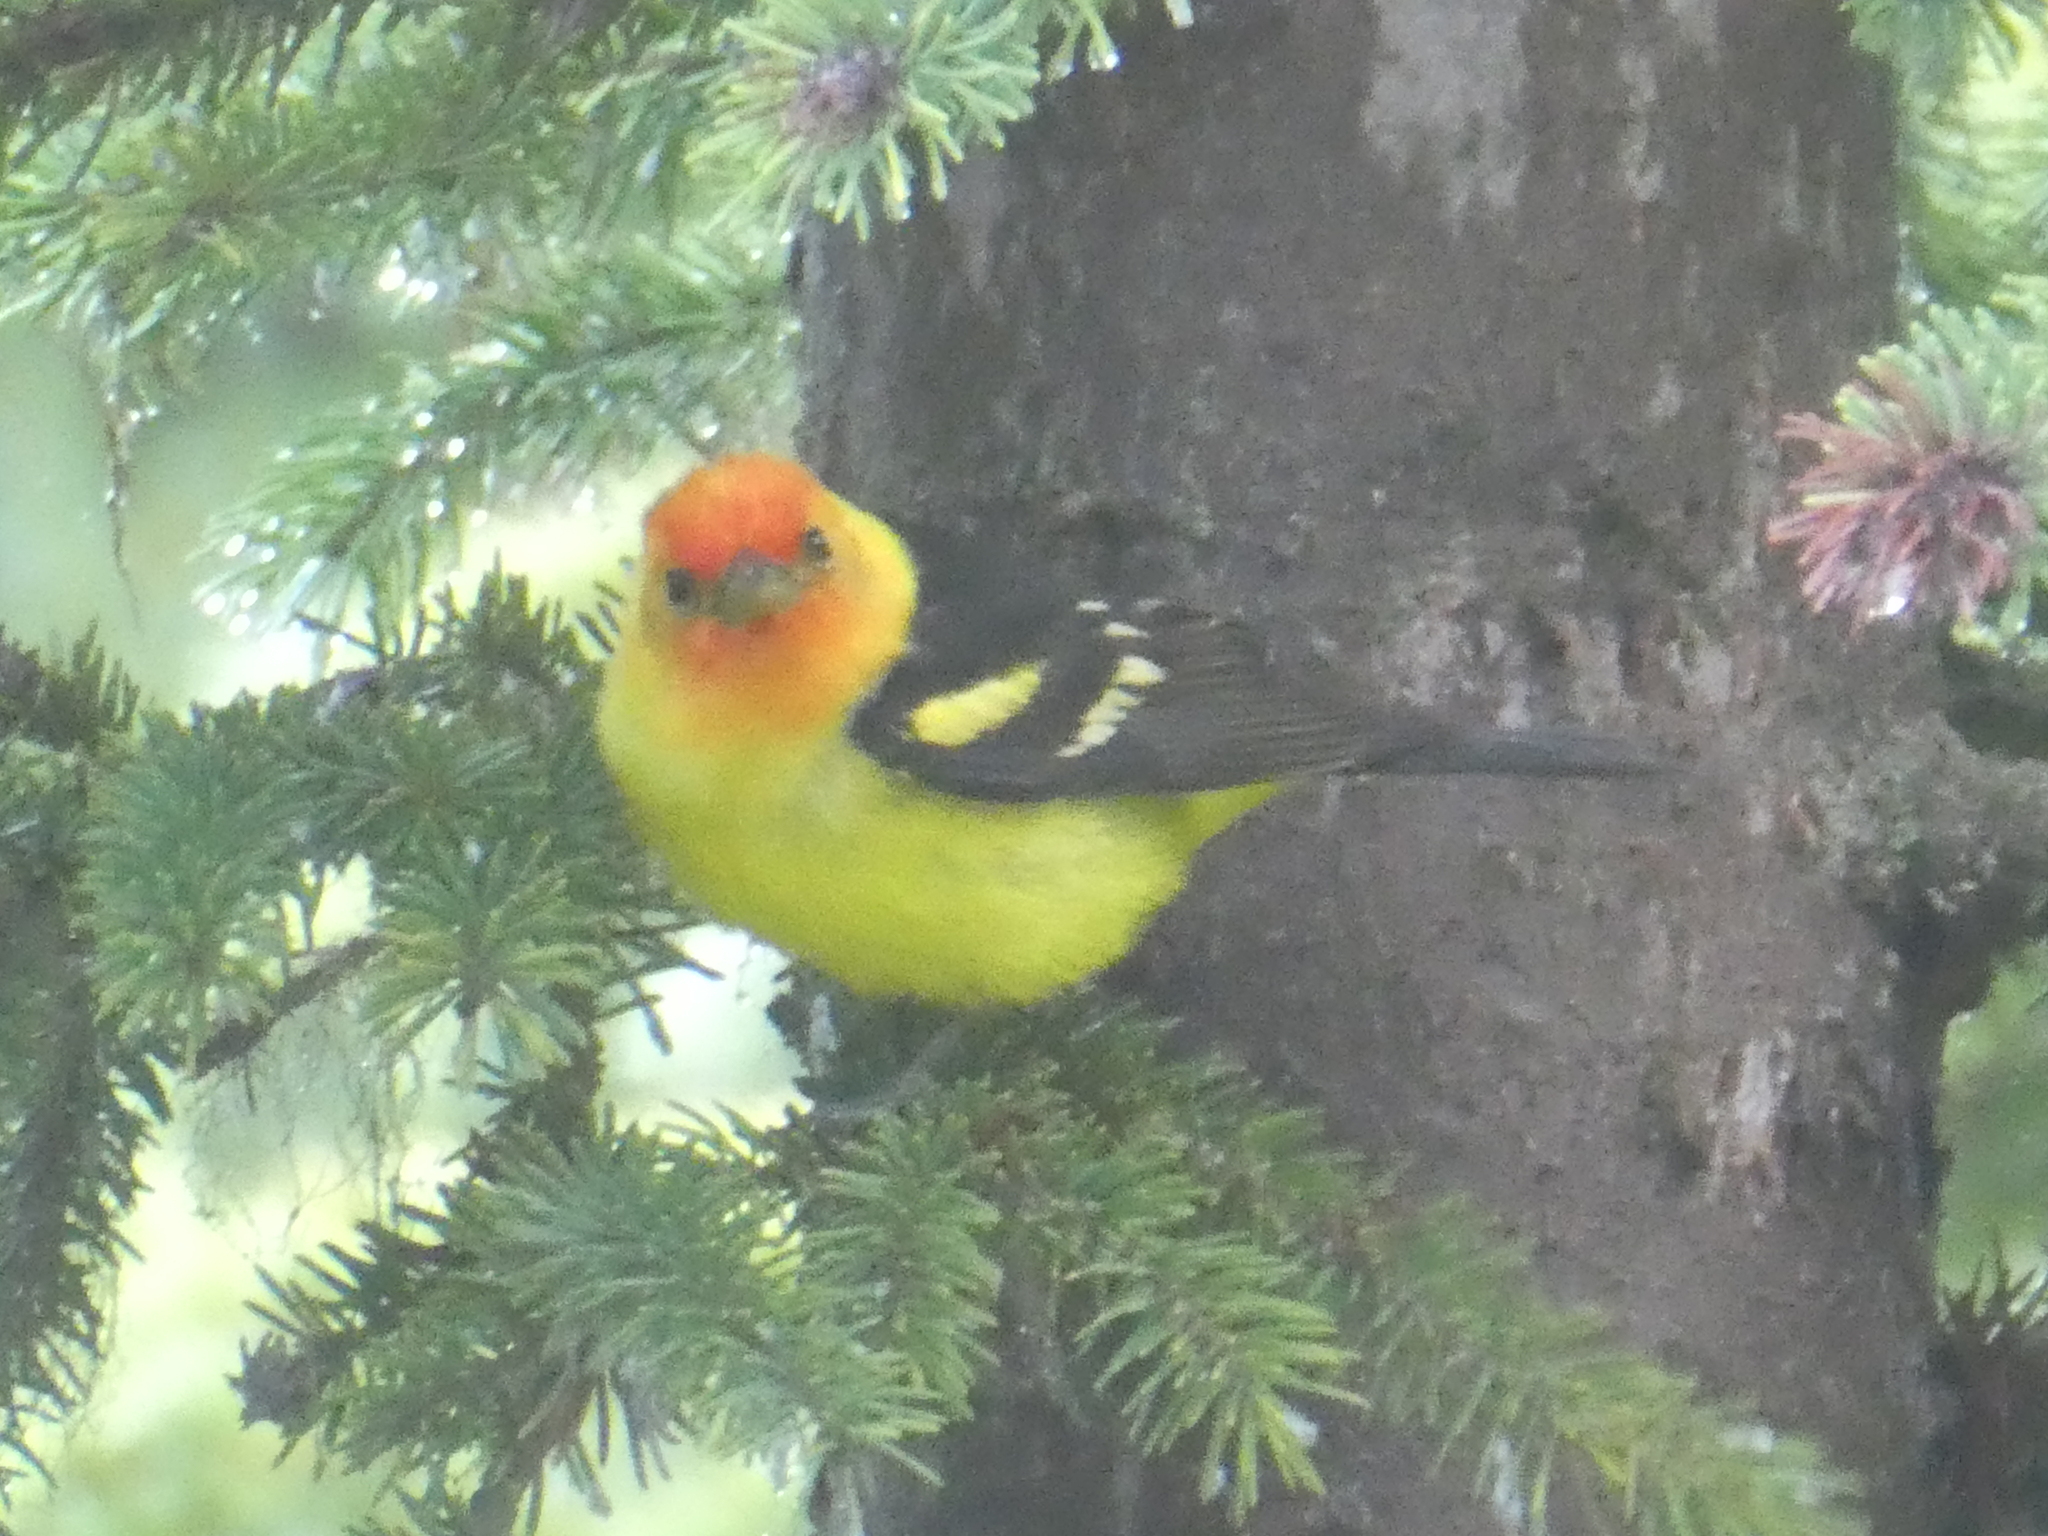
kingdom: Animalia
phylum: Chordata
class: Aves
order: Passeriformes
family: Cardinalidae
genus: Piranga
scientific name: Piranga ludoviciana
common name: Western tanager
